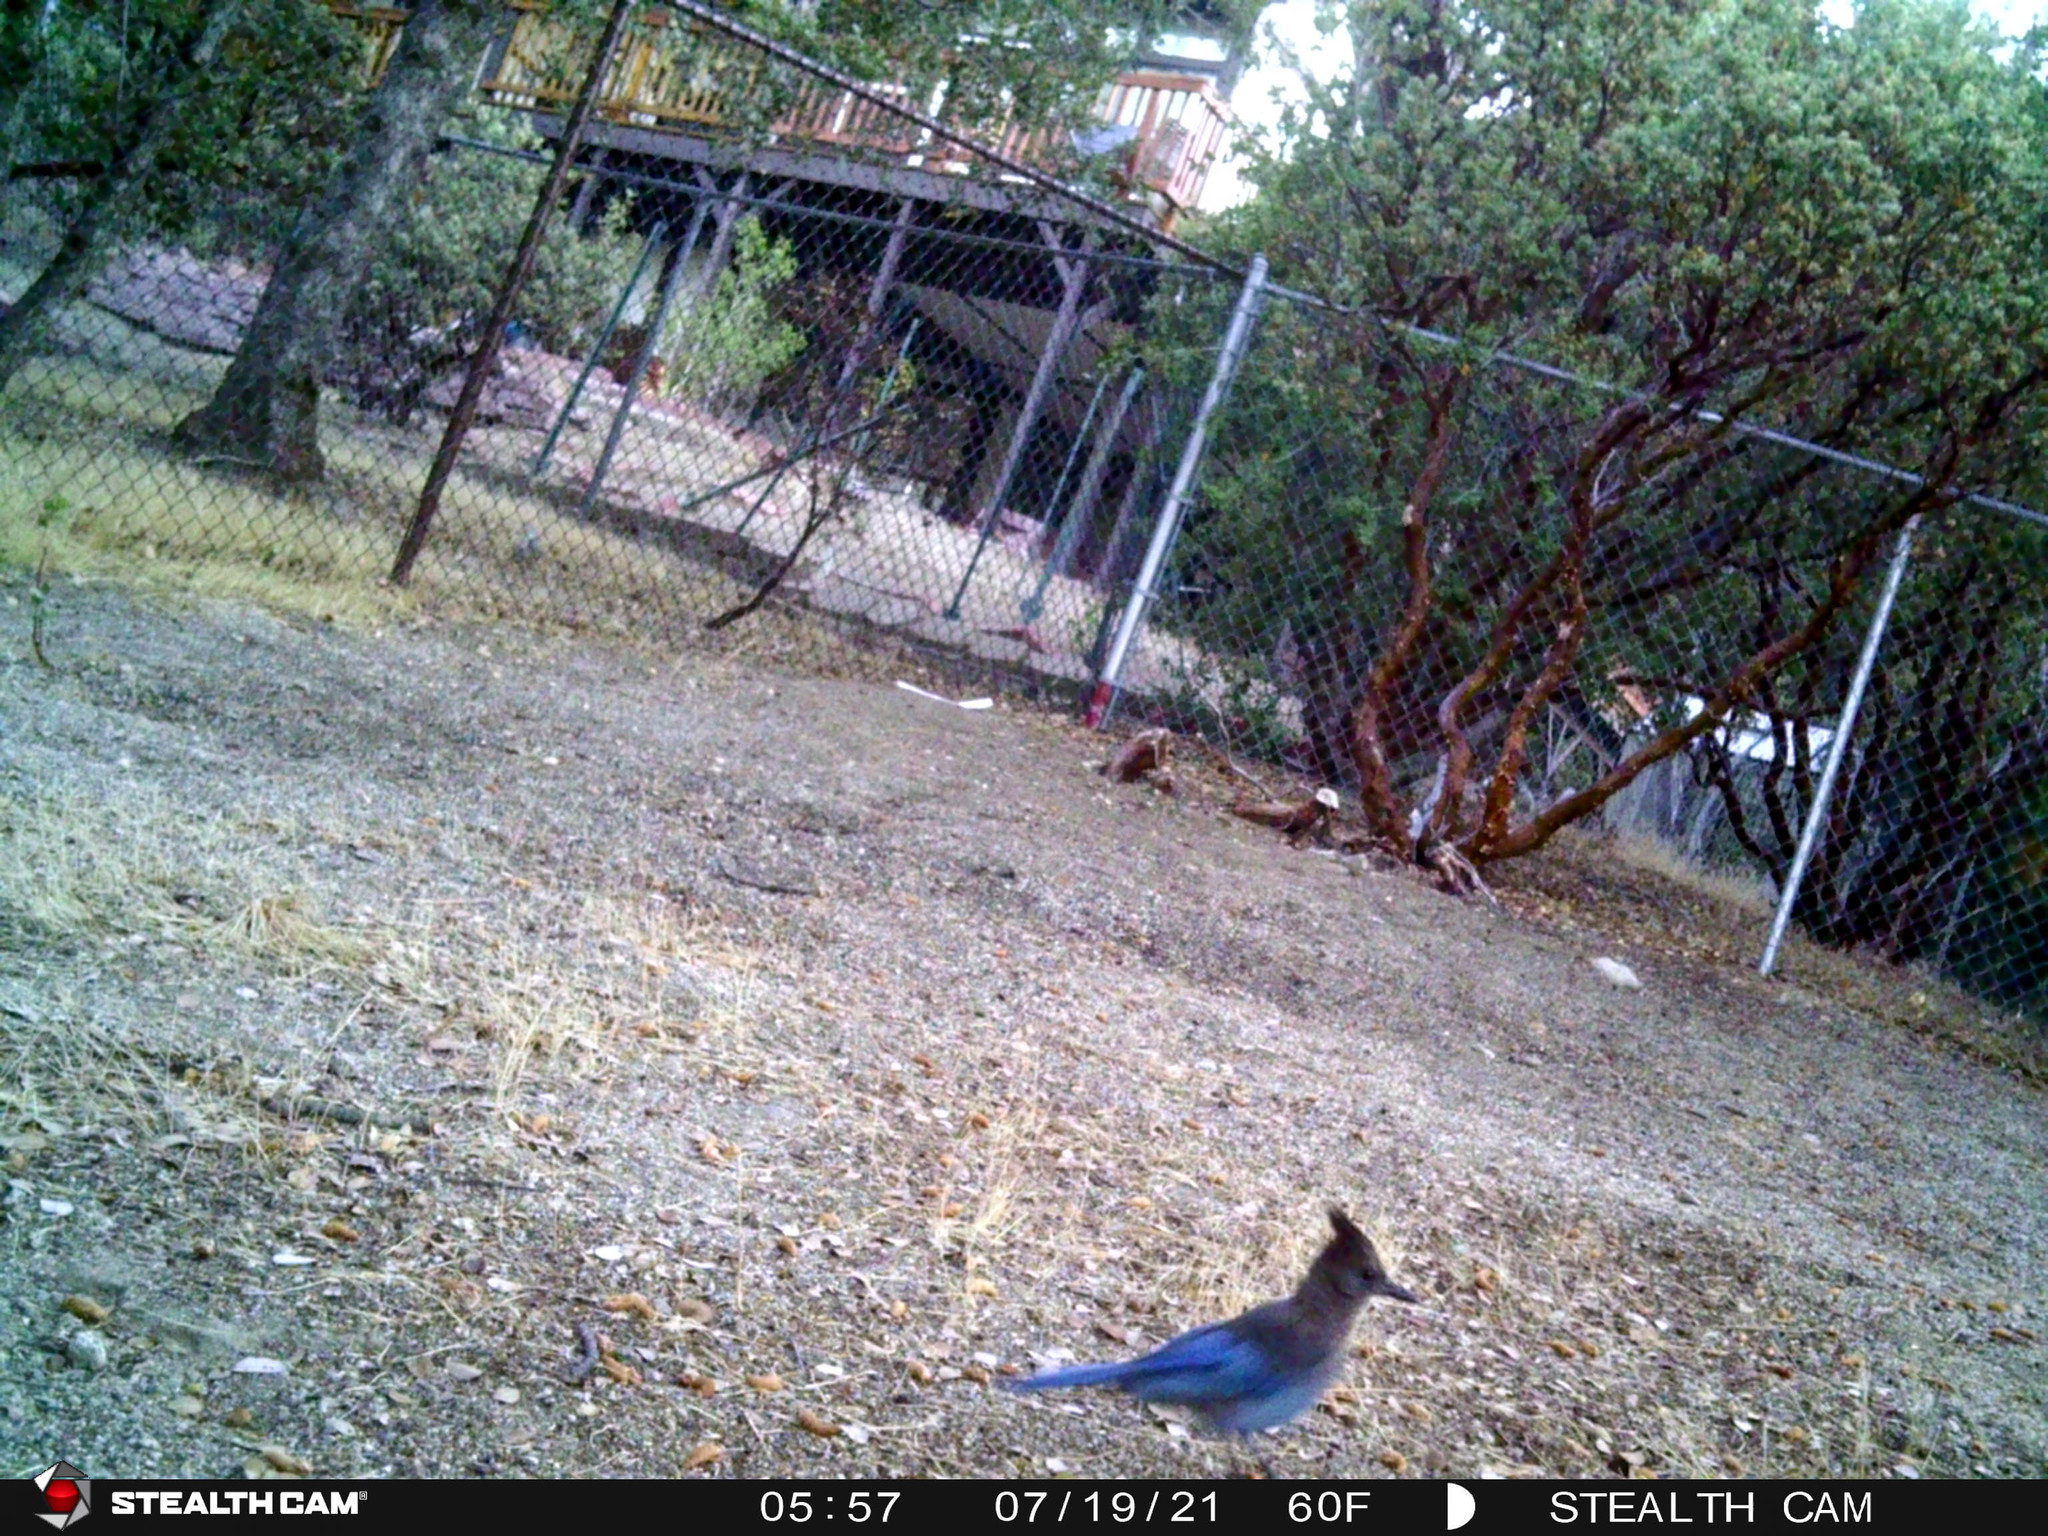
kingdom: Animalia
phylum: Chordata
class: Aves
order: Passeriformes
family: Corvidae
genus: Cyanocitta
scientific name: Cyanocitta stelleri
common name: Steller's jay
